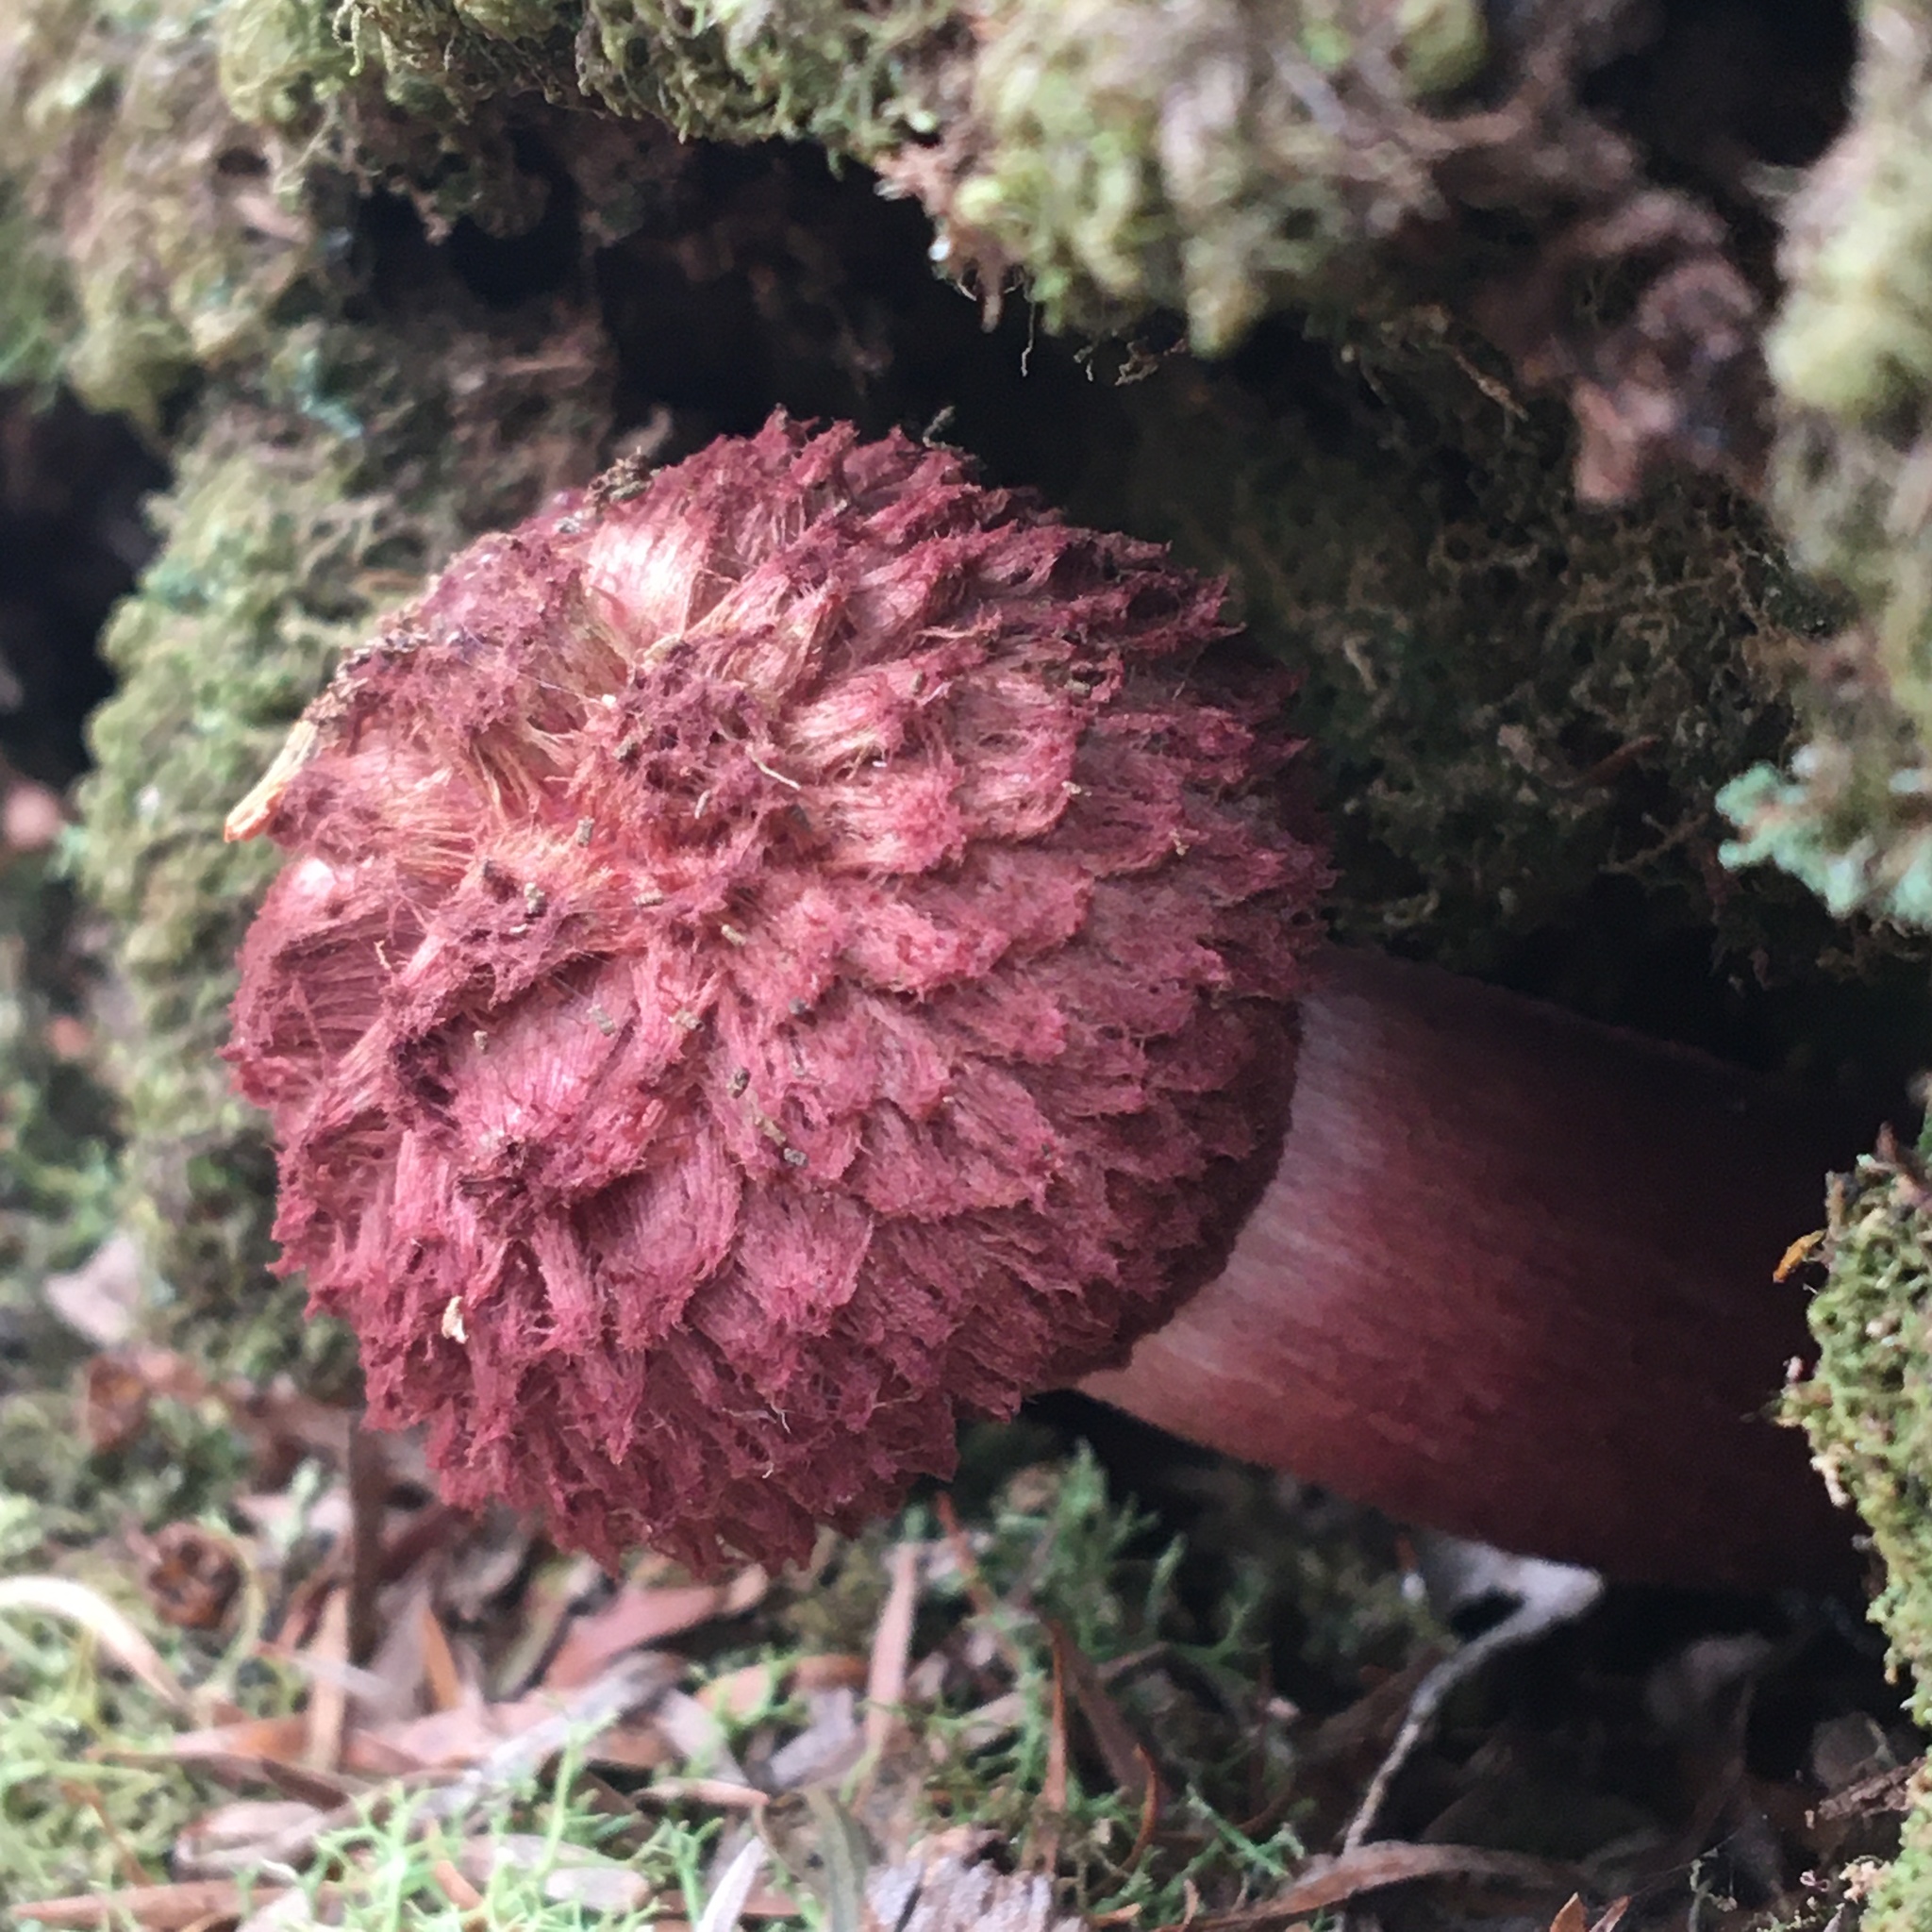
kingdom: Fungi
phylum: Basidiomycota
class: Agaricomycetes
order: Boletales
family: Boletaceae
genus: Boletellus
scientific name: Boletellus emodensis
